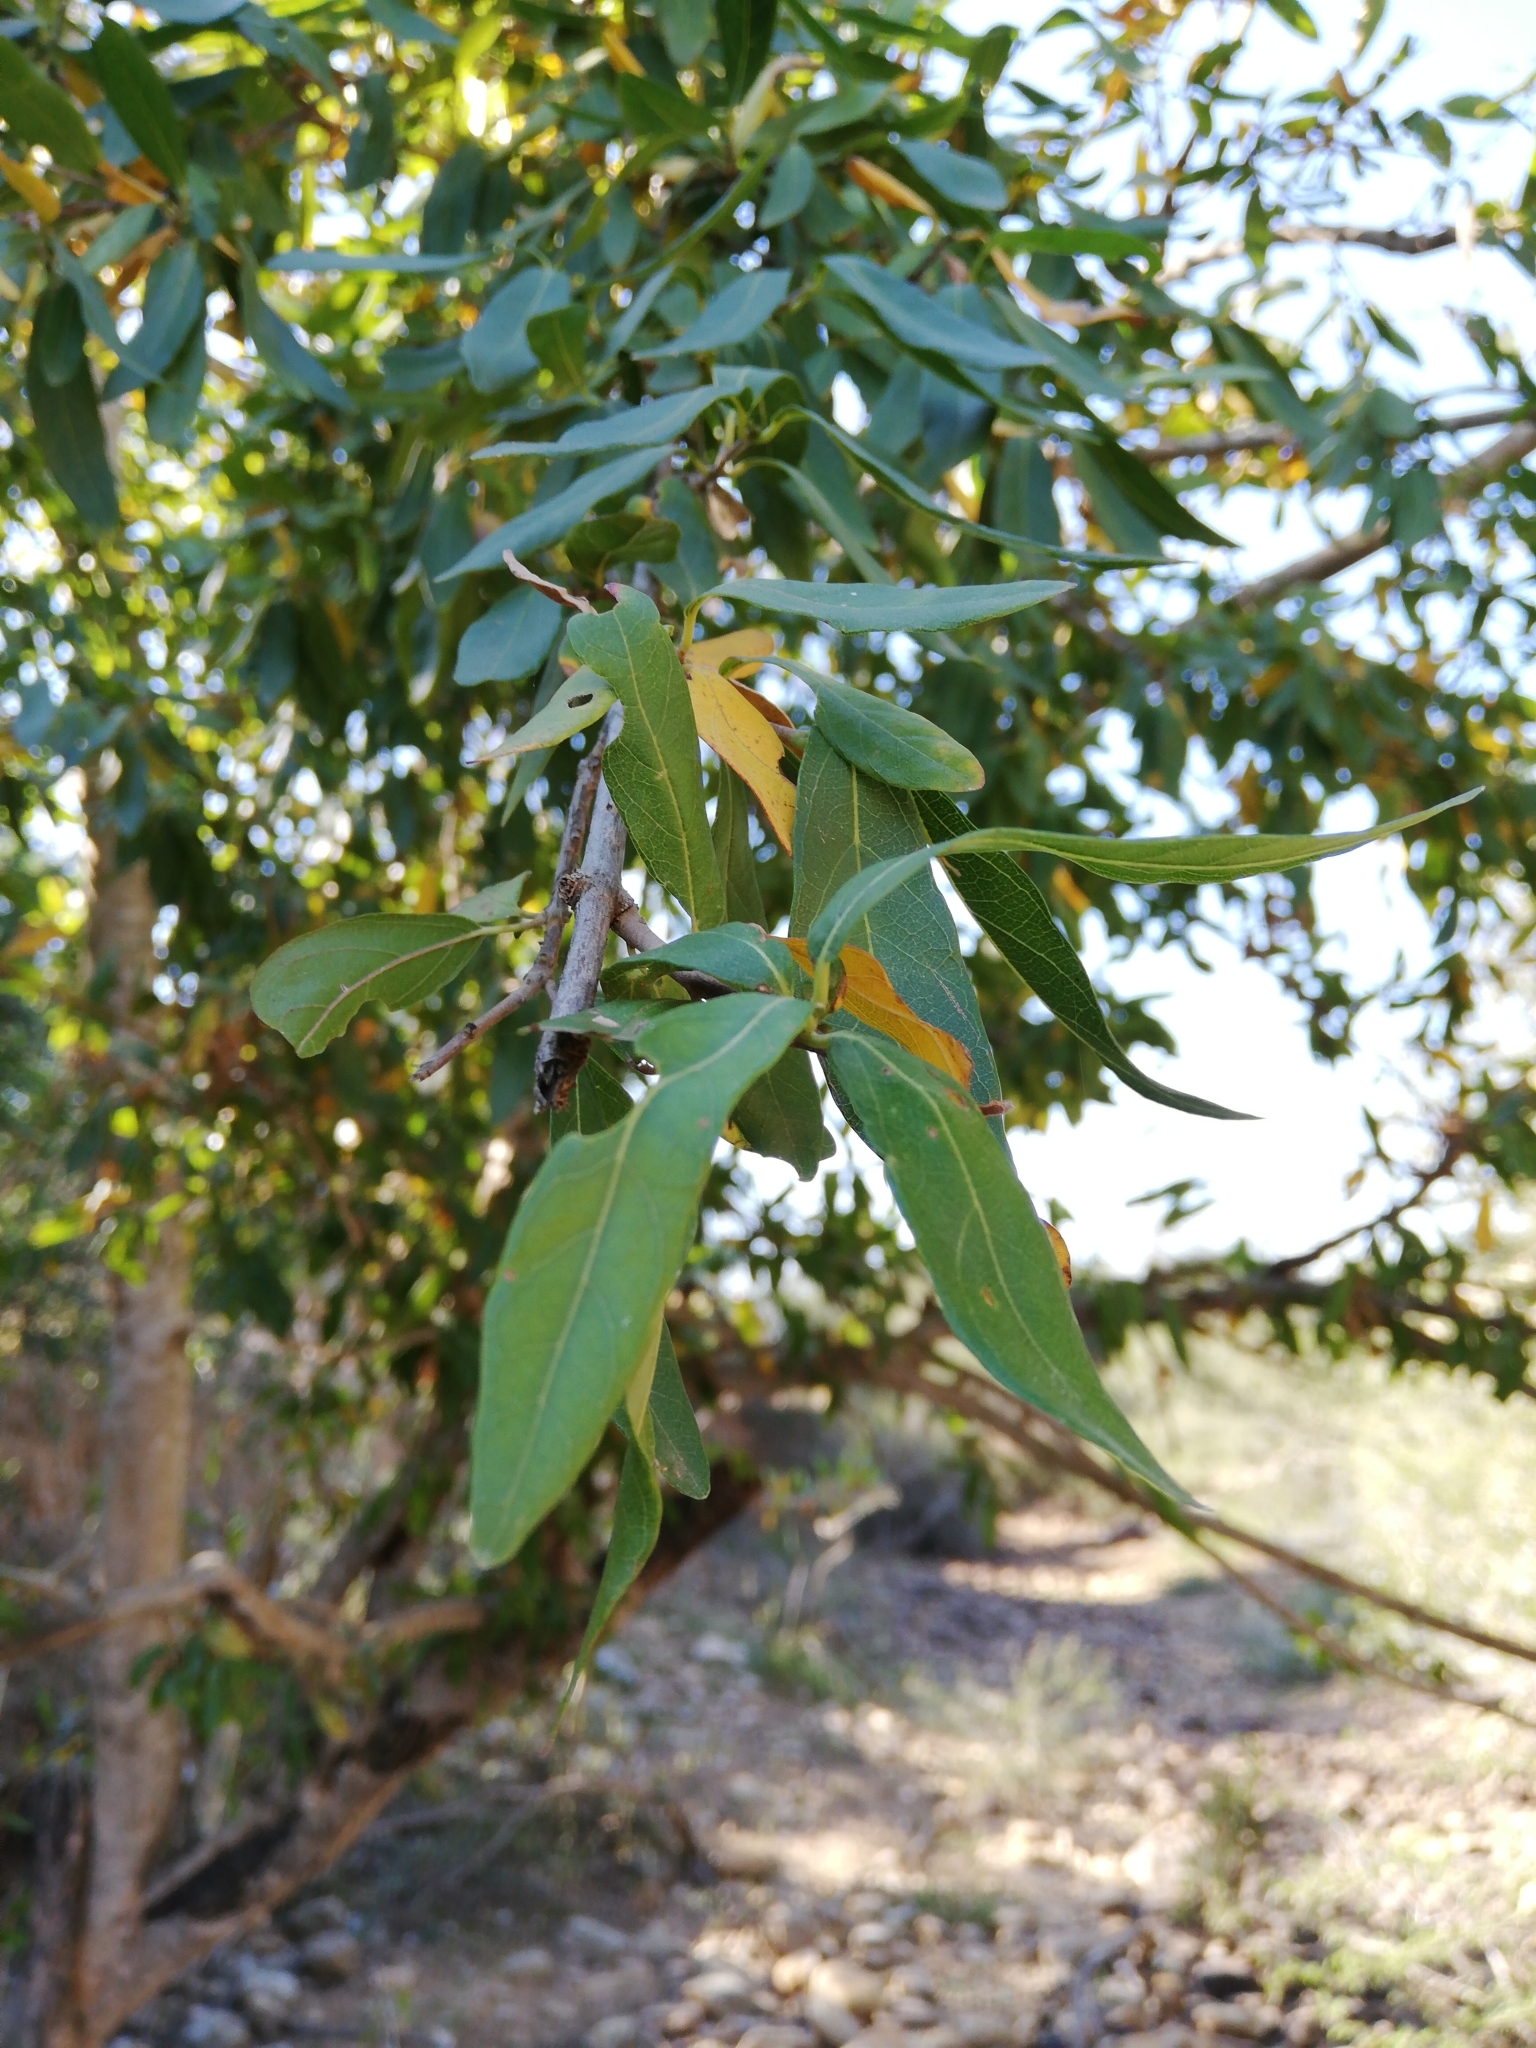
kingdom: Plantae
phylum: Tracheophyta
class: Magnoliopsida
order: Myrtales
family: Combretaceae
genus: Combretum
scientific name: Combretum caffrum
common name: Cape bushwillow
